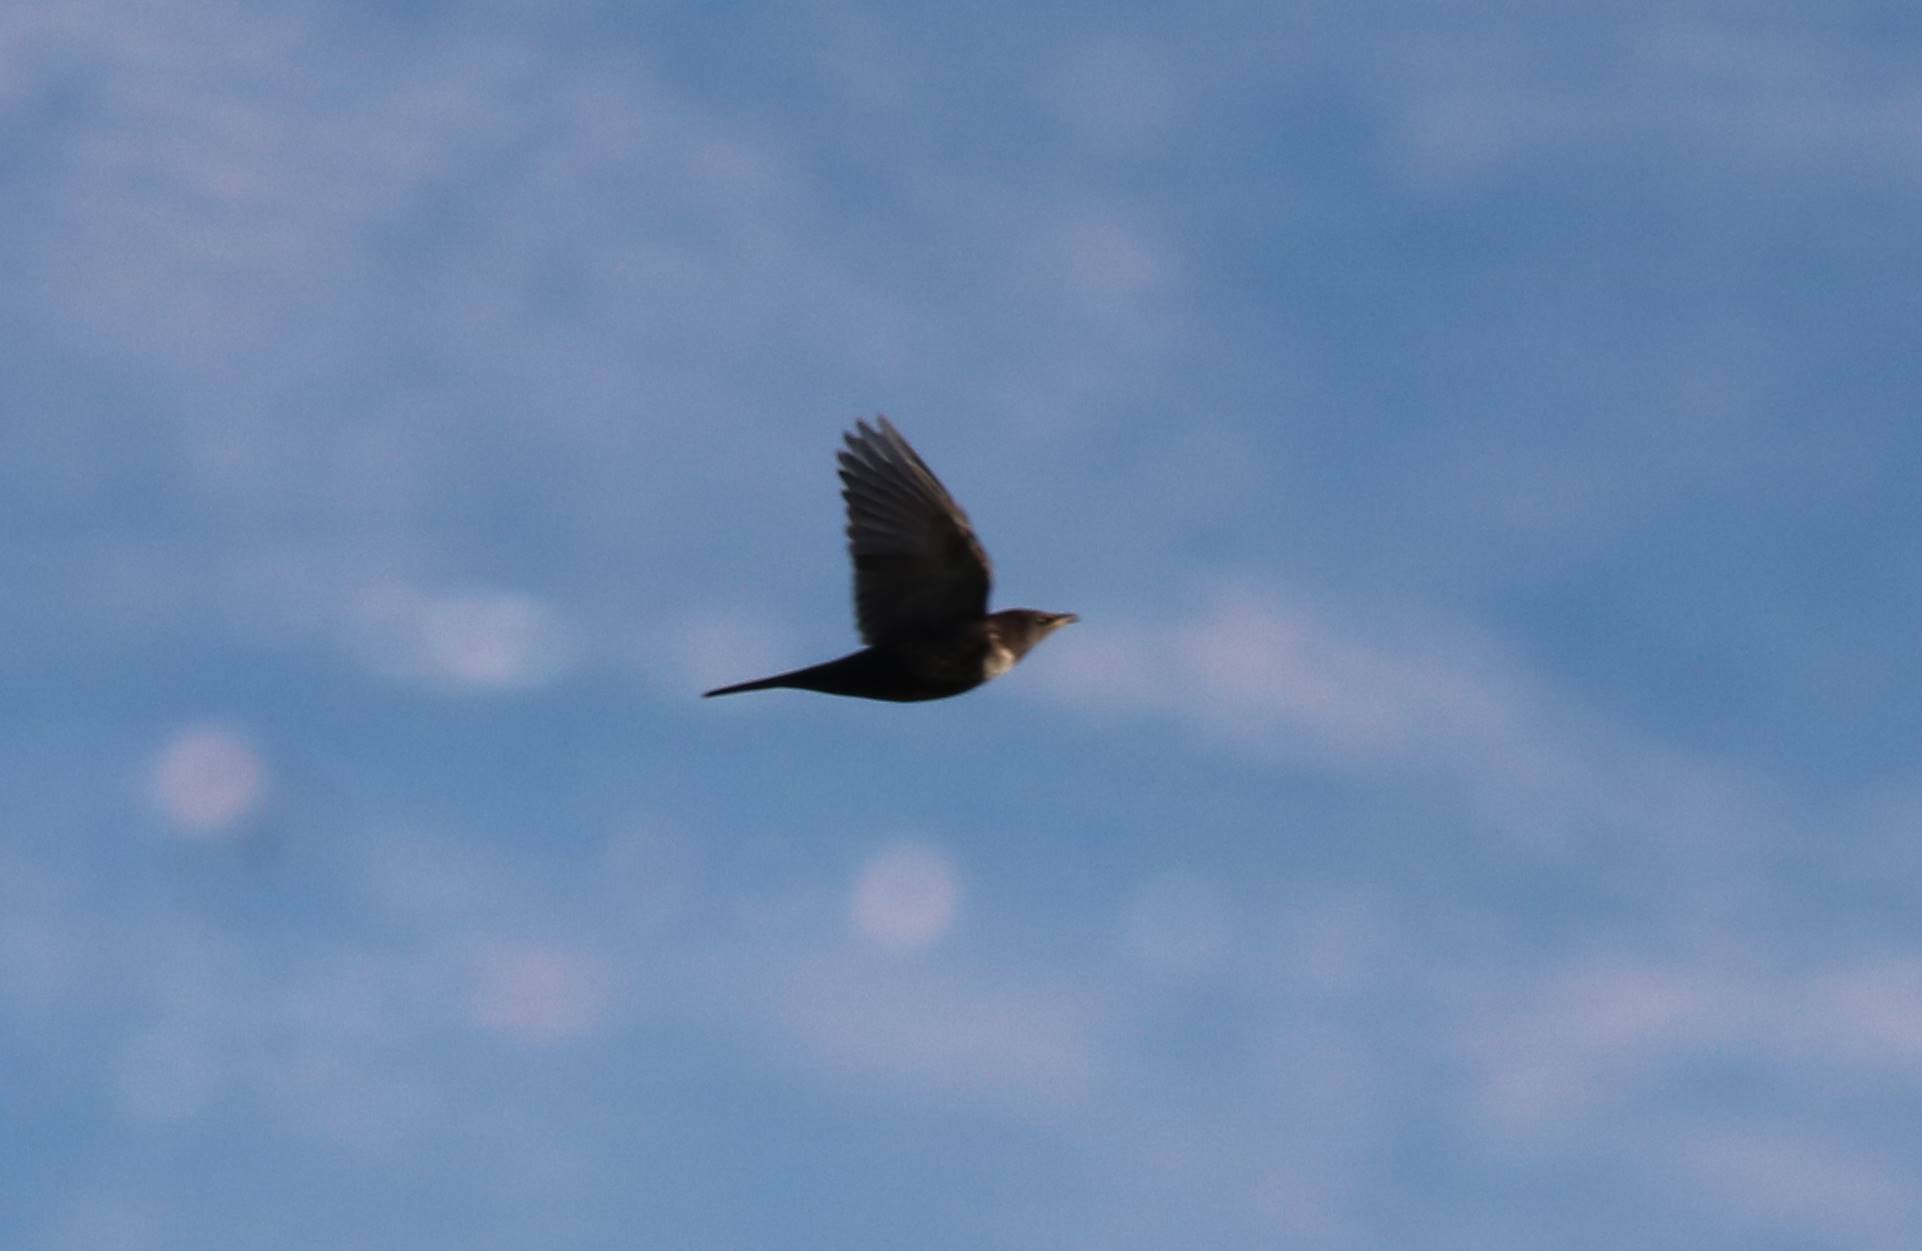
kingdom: Animalia
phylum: Chordata
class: Aves
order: Passeriformes
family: Turdidae
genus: Turdus
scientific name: Turdus torquatus
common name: Ring ouzel
